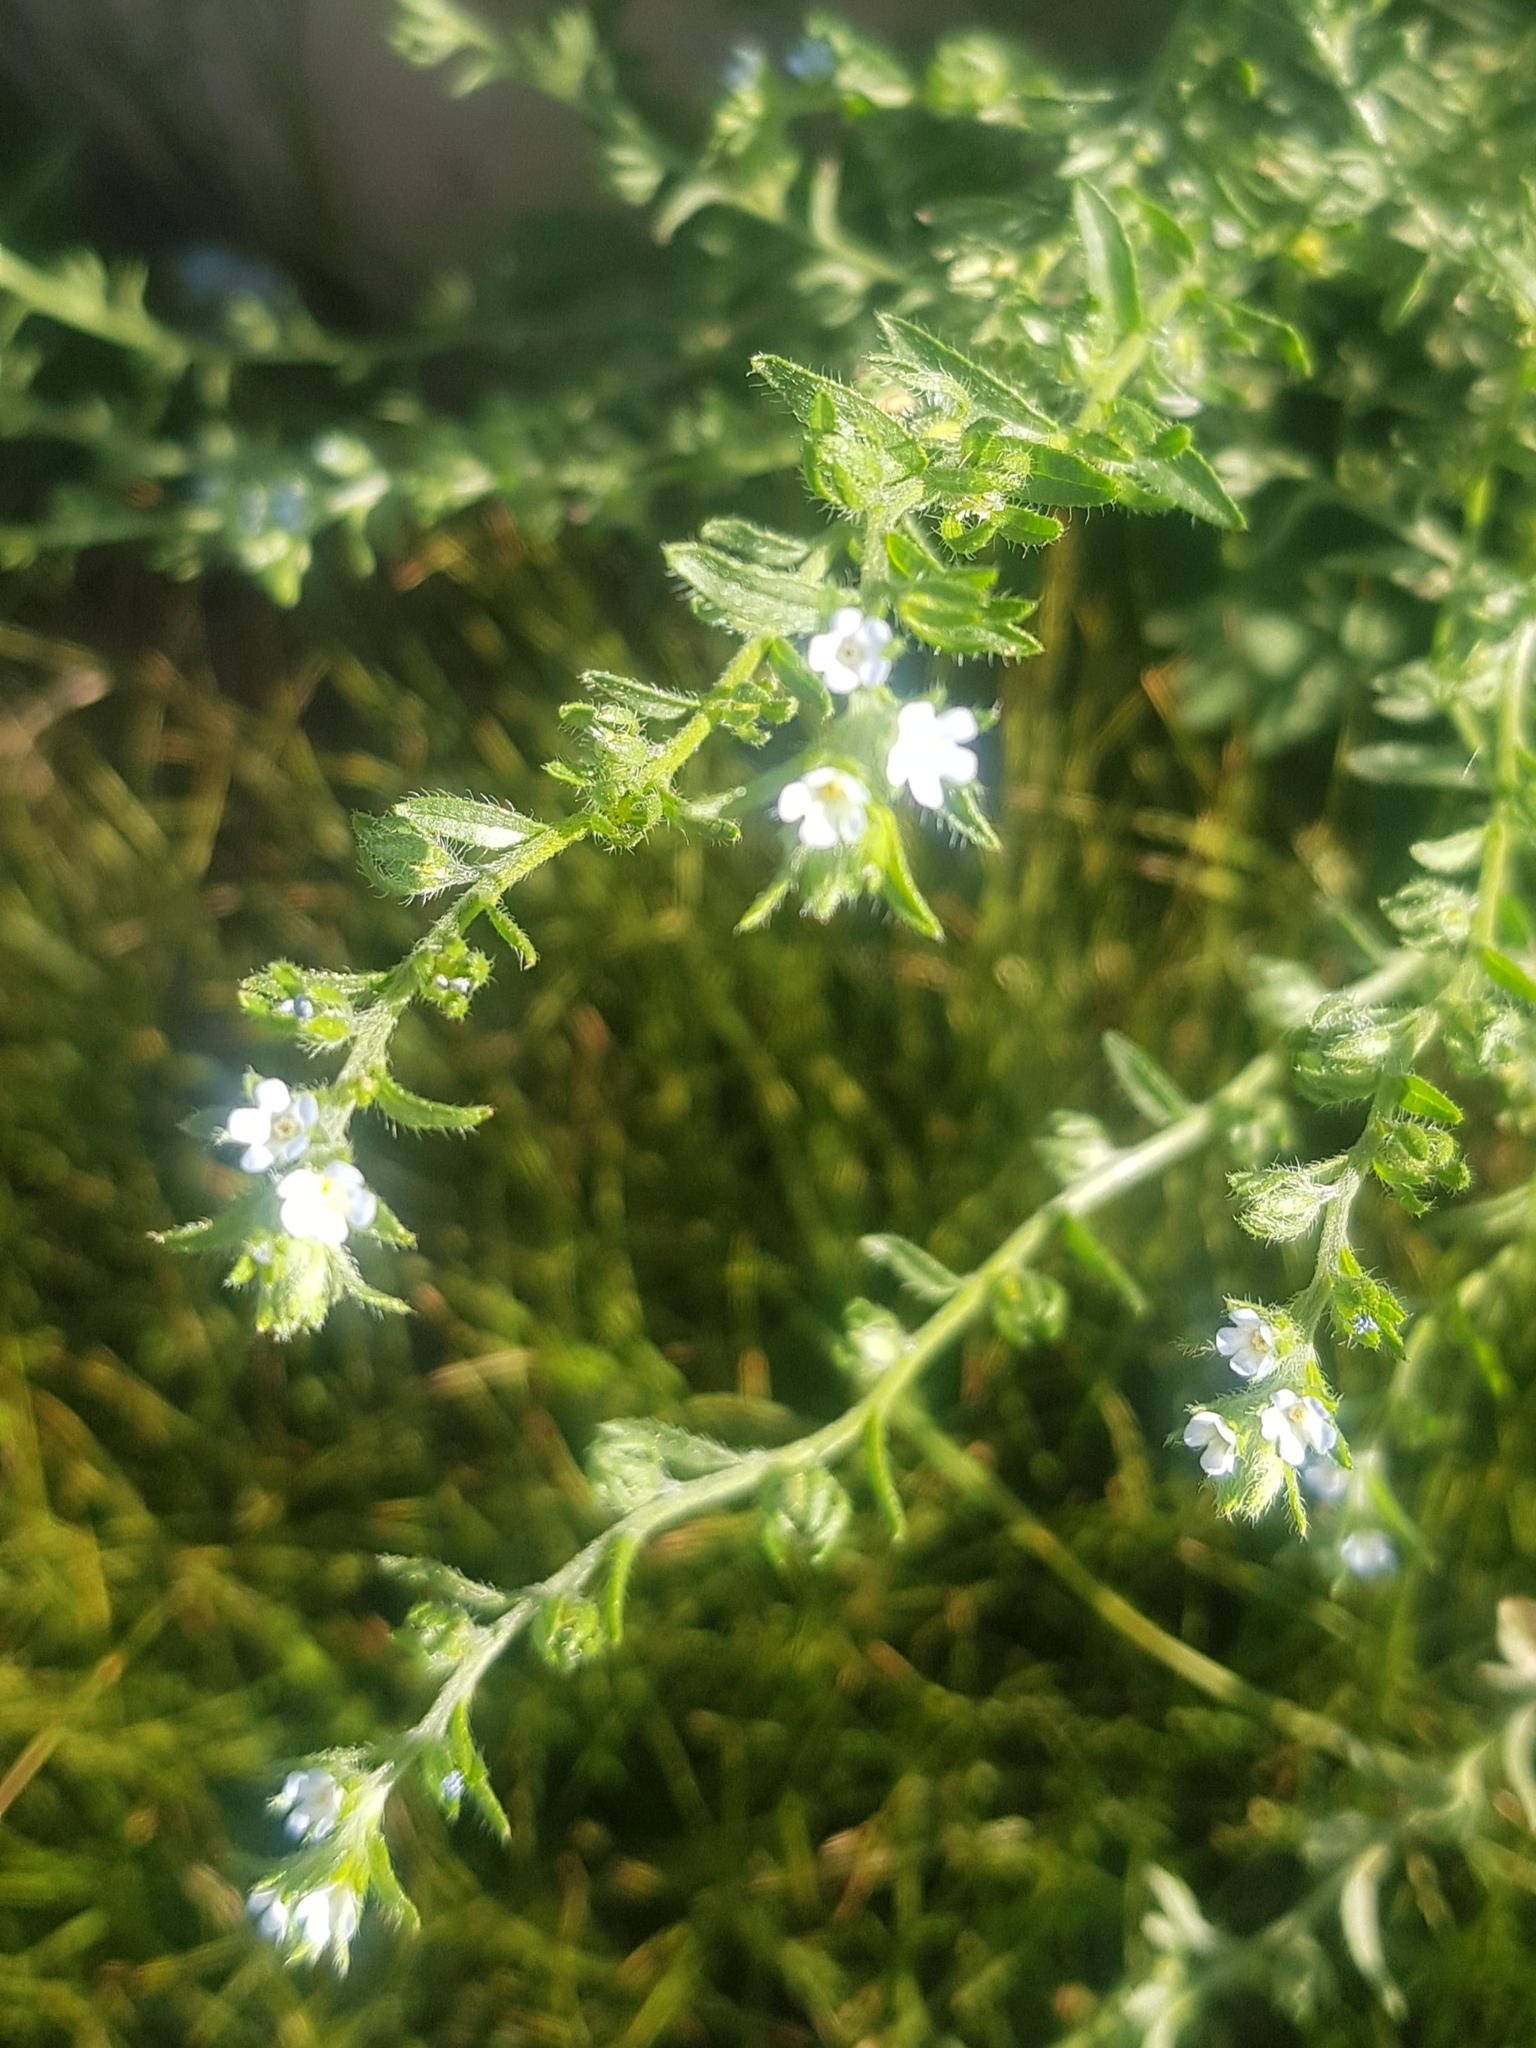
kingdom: Plantae
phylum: Tracheophyta
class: Magnoliopsida
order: Boraginales
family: Boraginaceae
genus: Lappula
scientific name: Lappula squarrosa
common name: European stickseed
